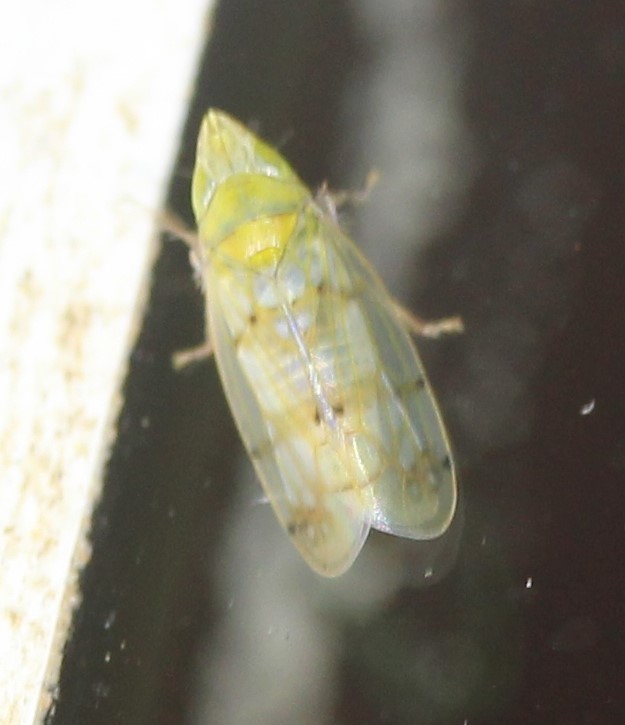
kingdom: Animalia
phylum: Arthropoda
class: Insecta
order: Hemiptera
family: Cicadellidae
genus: Japananus
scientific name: Japananus hyalinus
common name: The japanese maple leafhopper
